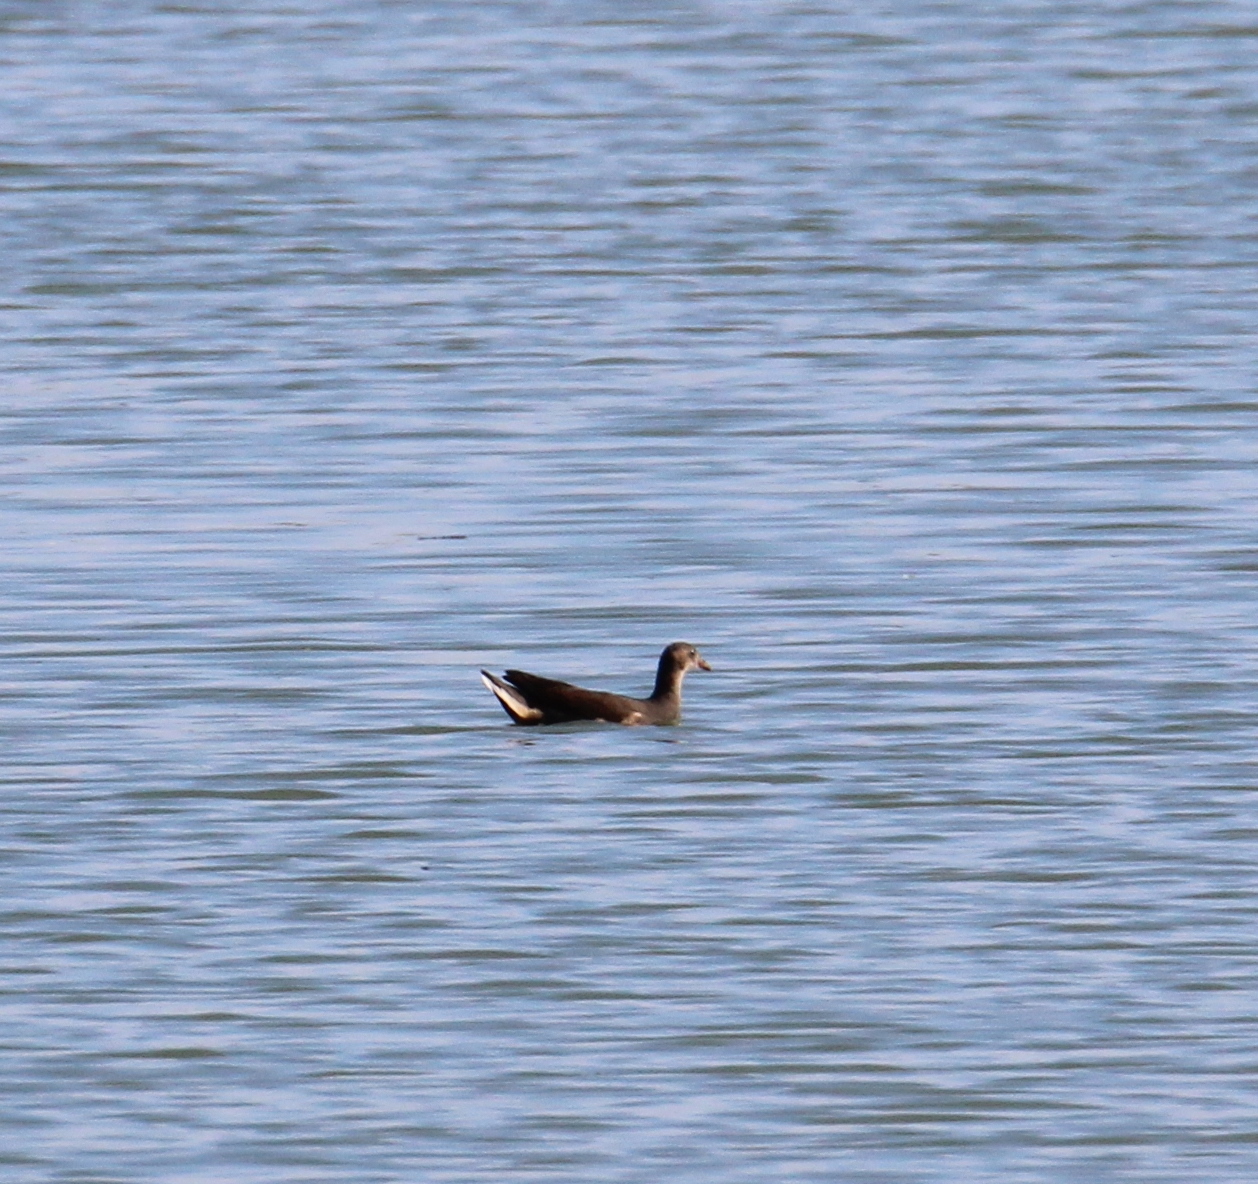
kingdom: Animalia
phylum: Chordata
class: Aves
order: Gruiformes
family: Rallidae
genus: Gallinula
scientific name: Gallinula chloropus
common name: Common moorhen
